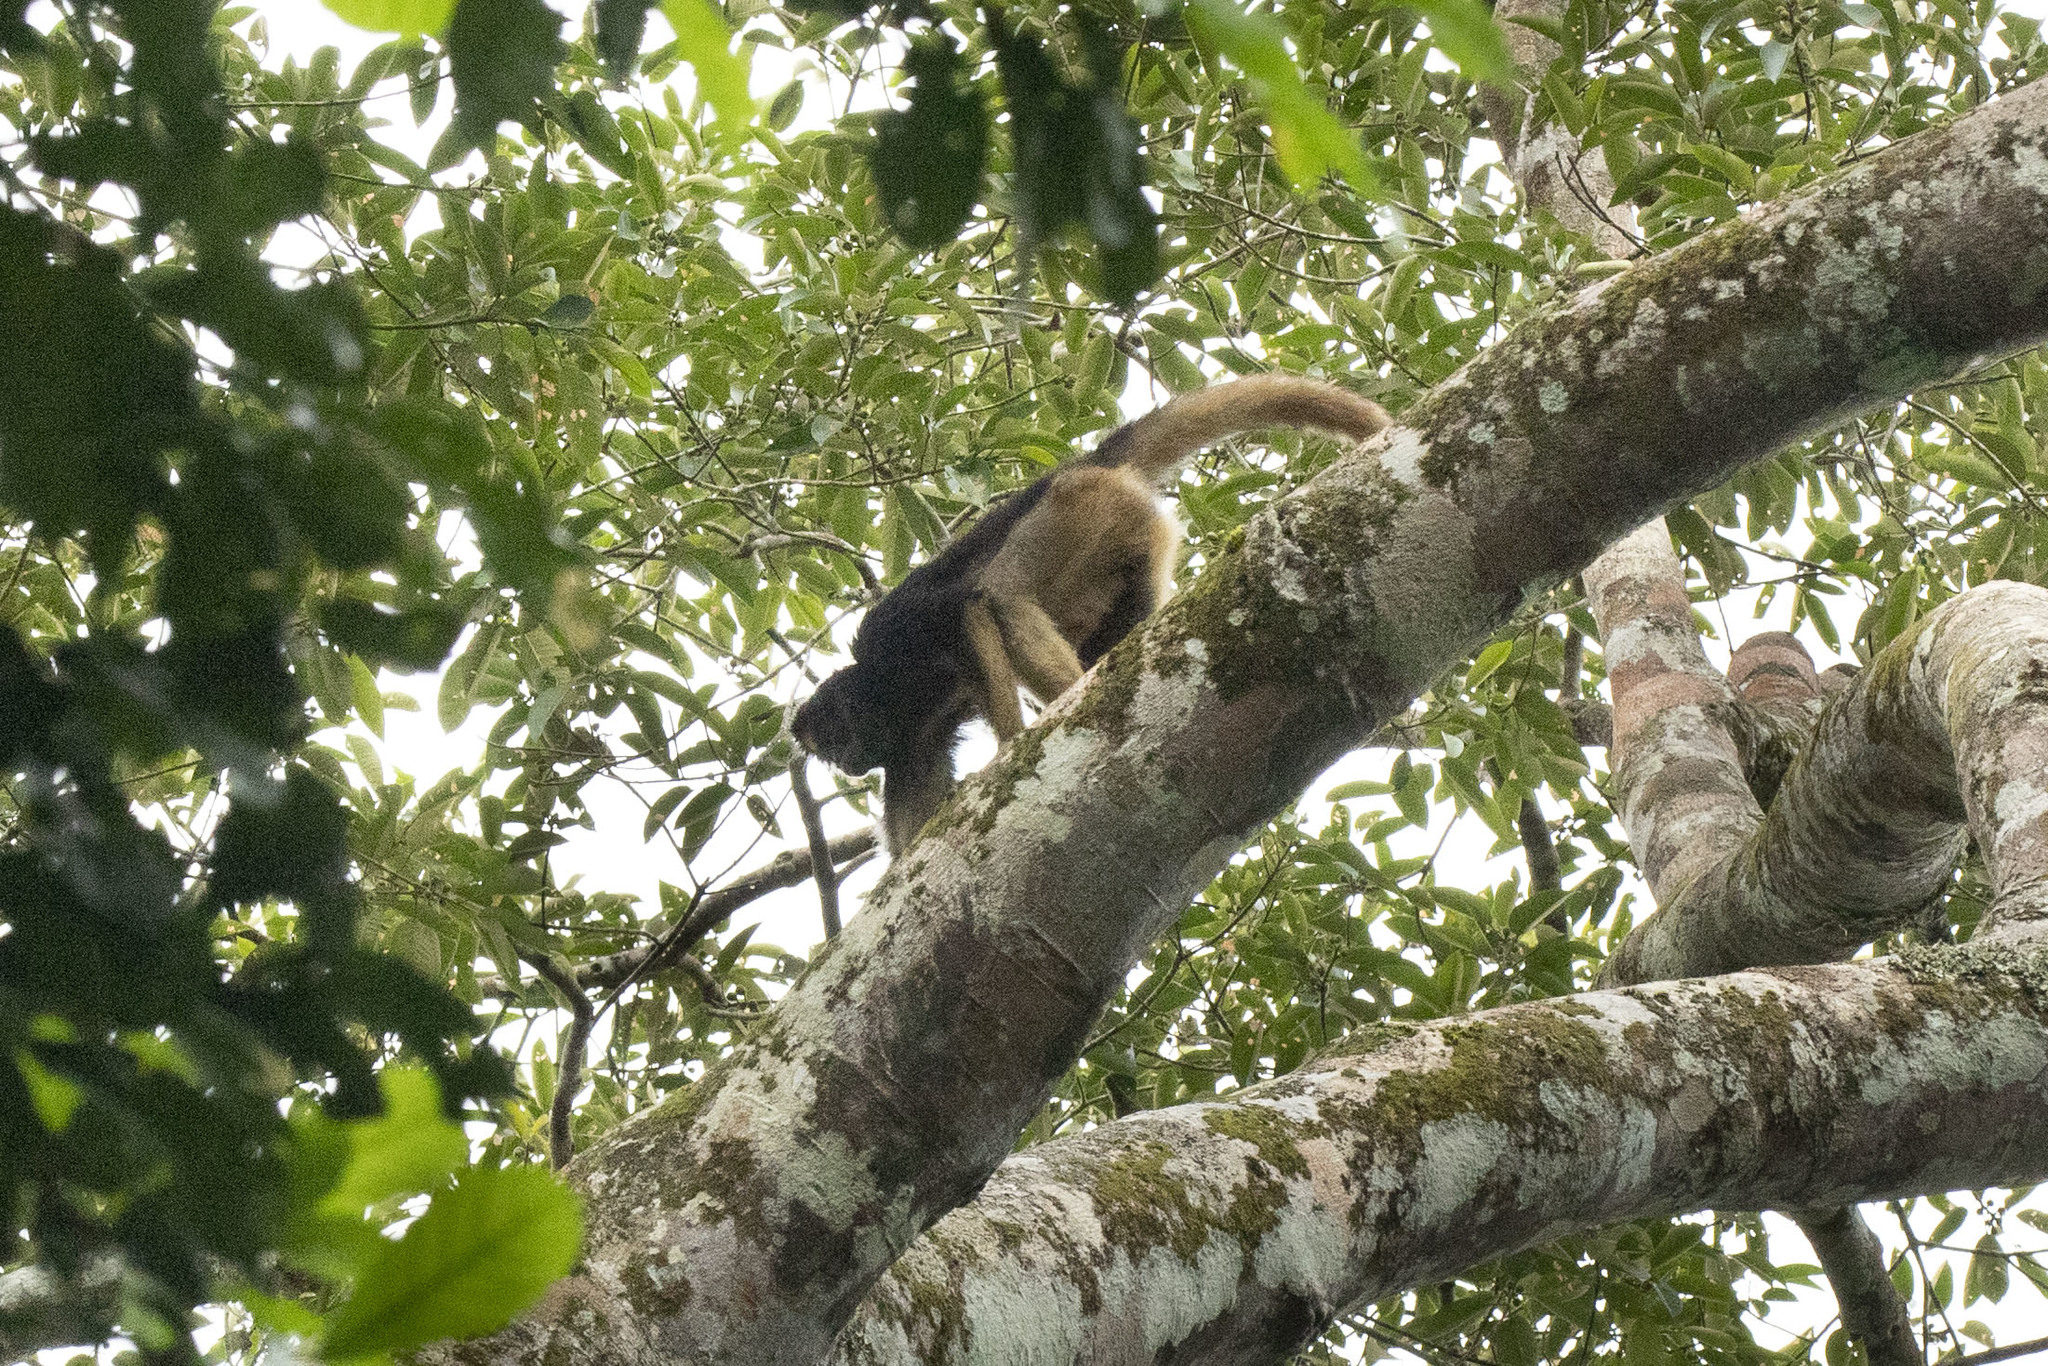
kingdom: Animalia
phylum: Chordata
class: Mammalia
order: Primates
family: Atelidae
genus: Ateles
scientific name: Ateles belzebuth
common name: White-fronted spider monkey
